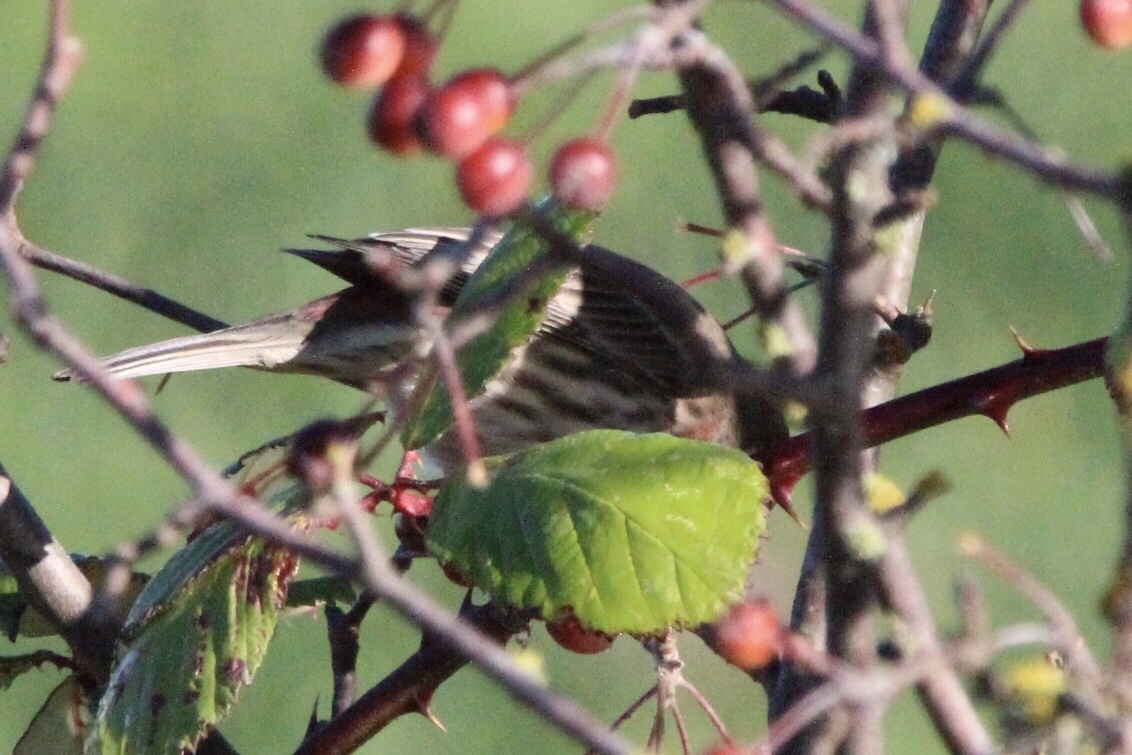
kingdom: Animalia
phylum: Chordata
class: Aves
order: Passeriformes
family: Fringillidae
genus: Haemorhous
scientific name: Haemorhous mexicanus
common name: House finch
